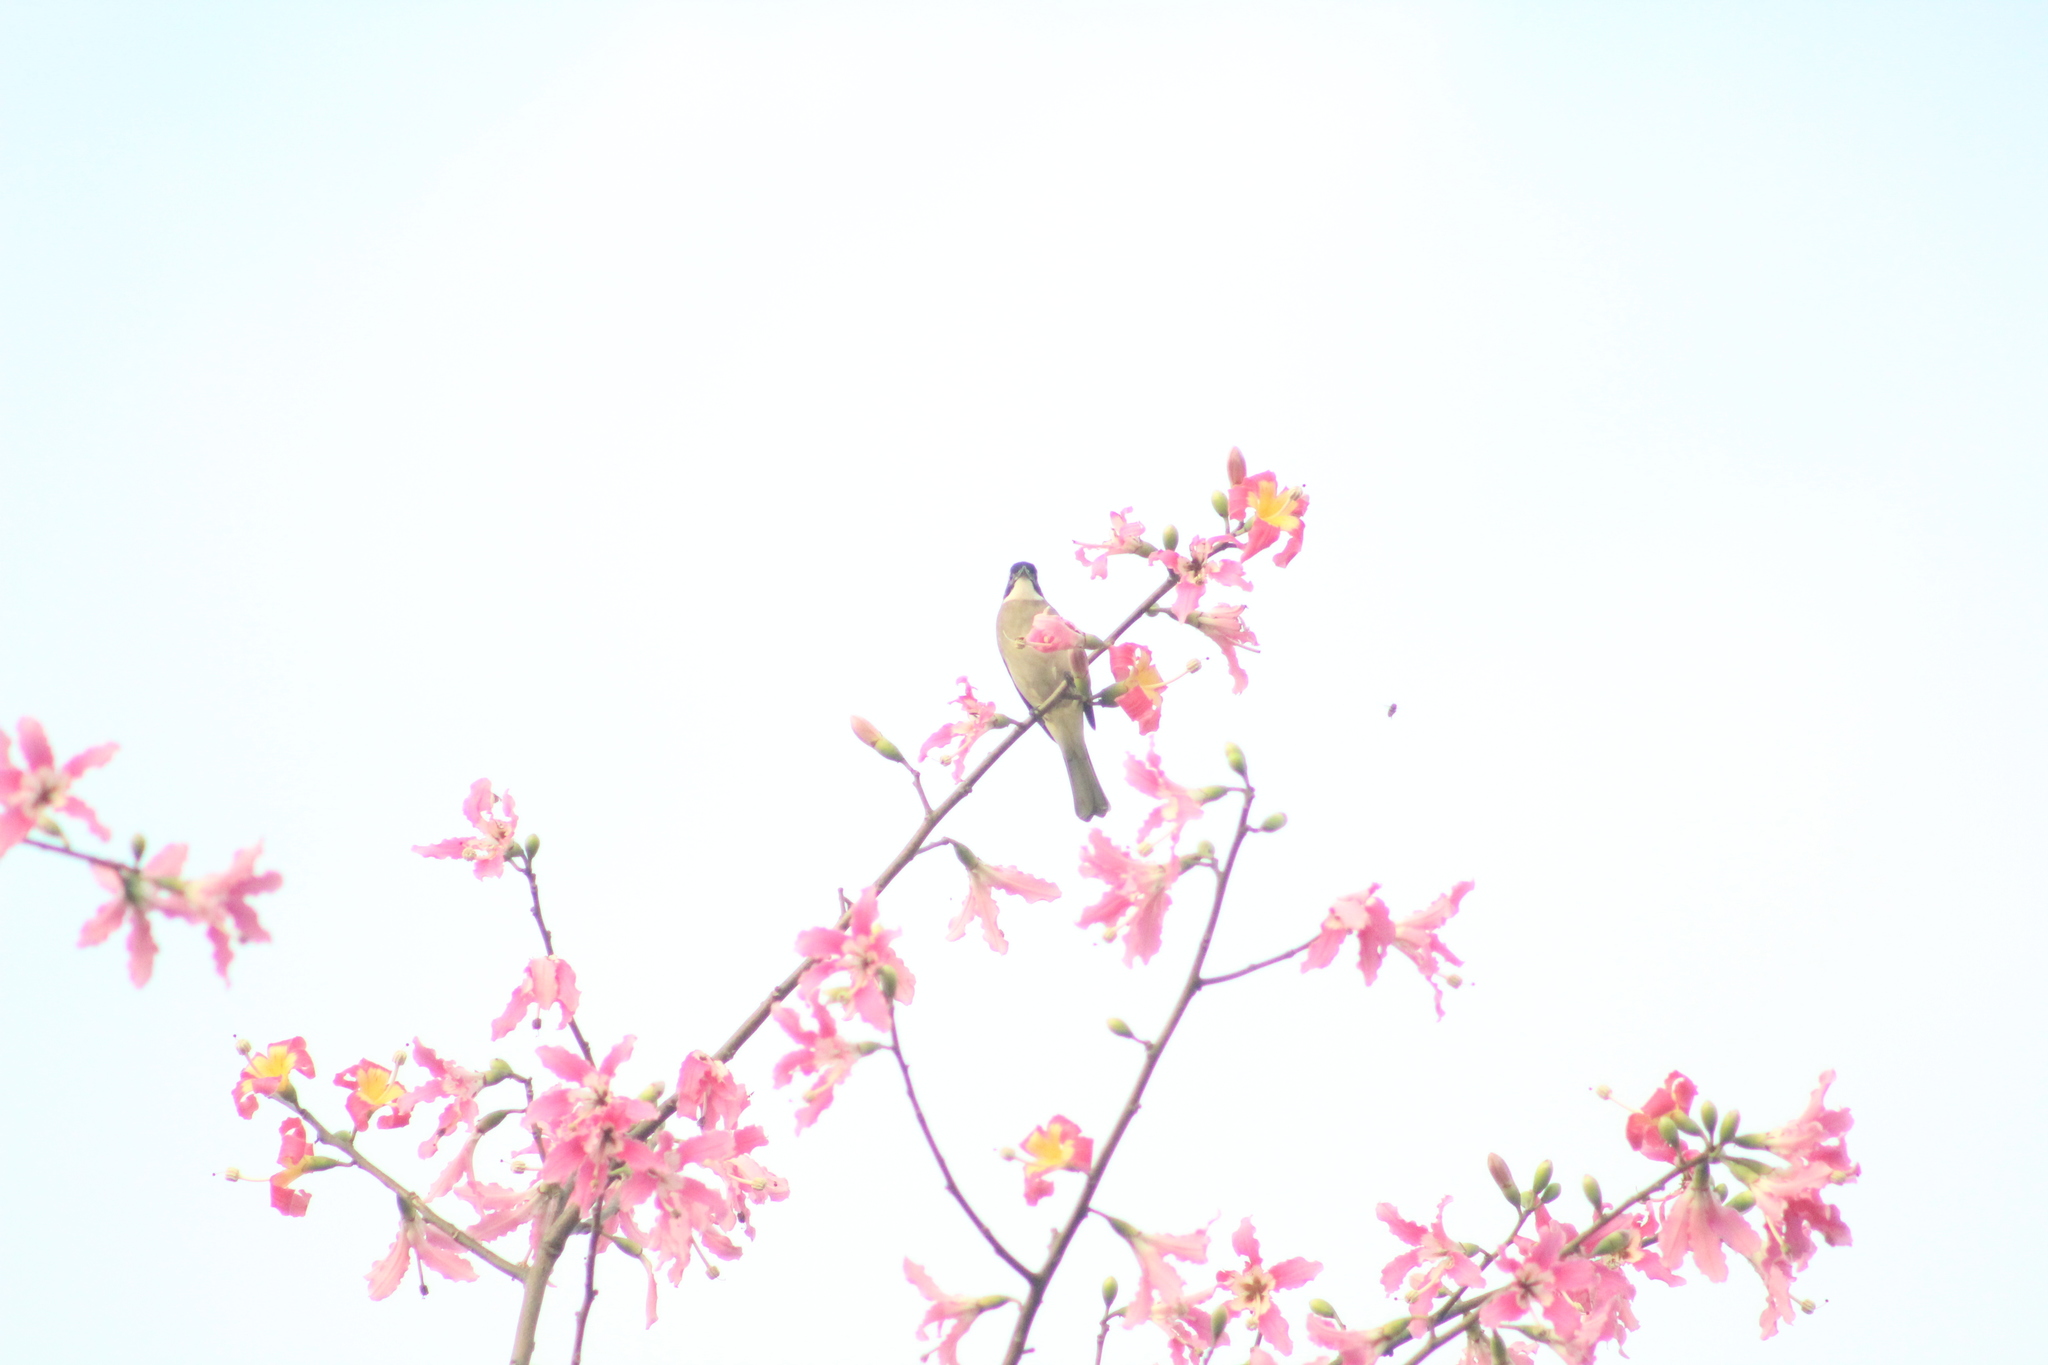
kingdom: Animalia
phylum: Chordata
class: Aves
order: Passeriformes
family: Pycnonotidae
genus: Pycnonotus
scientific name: Pycnonotus sinensis
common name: Light-vented bulbul
